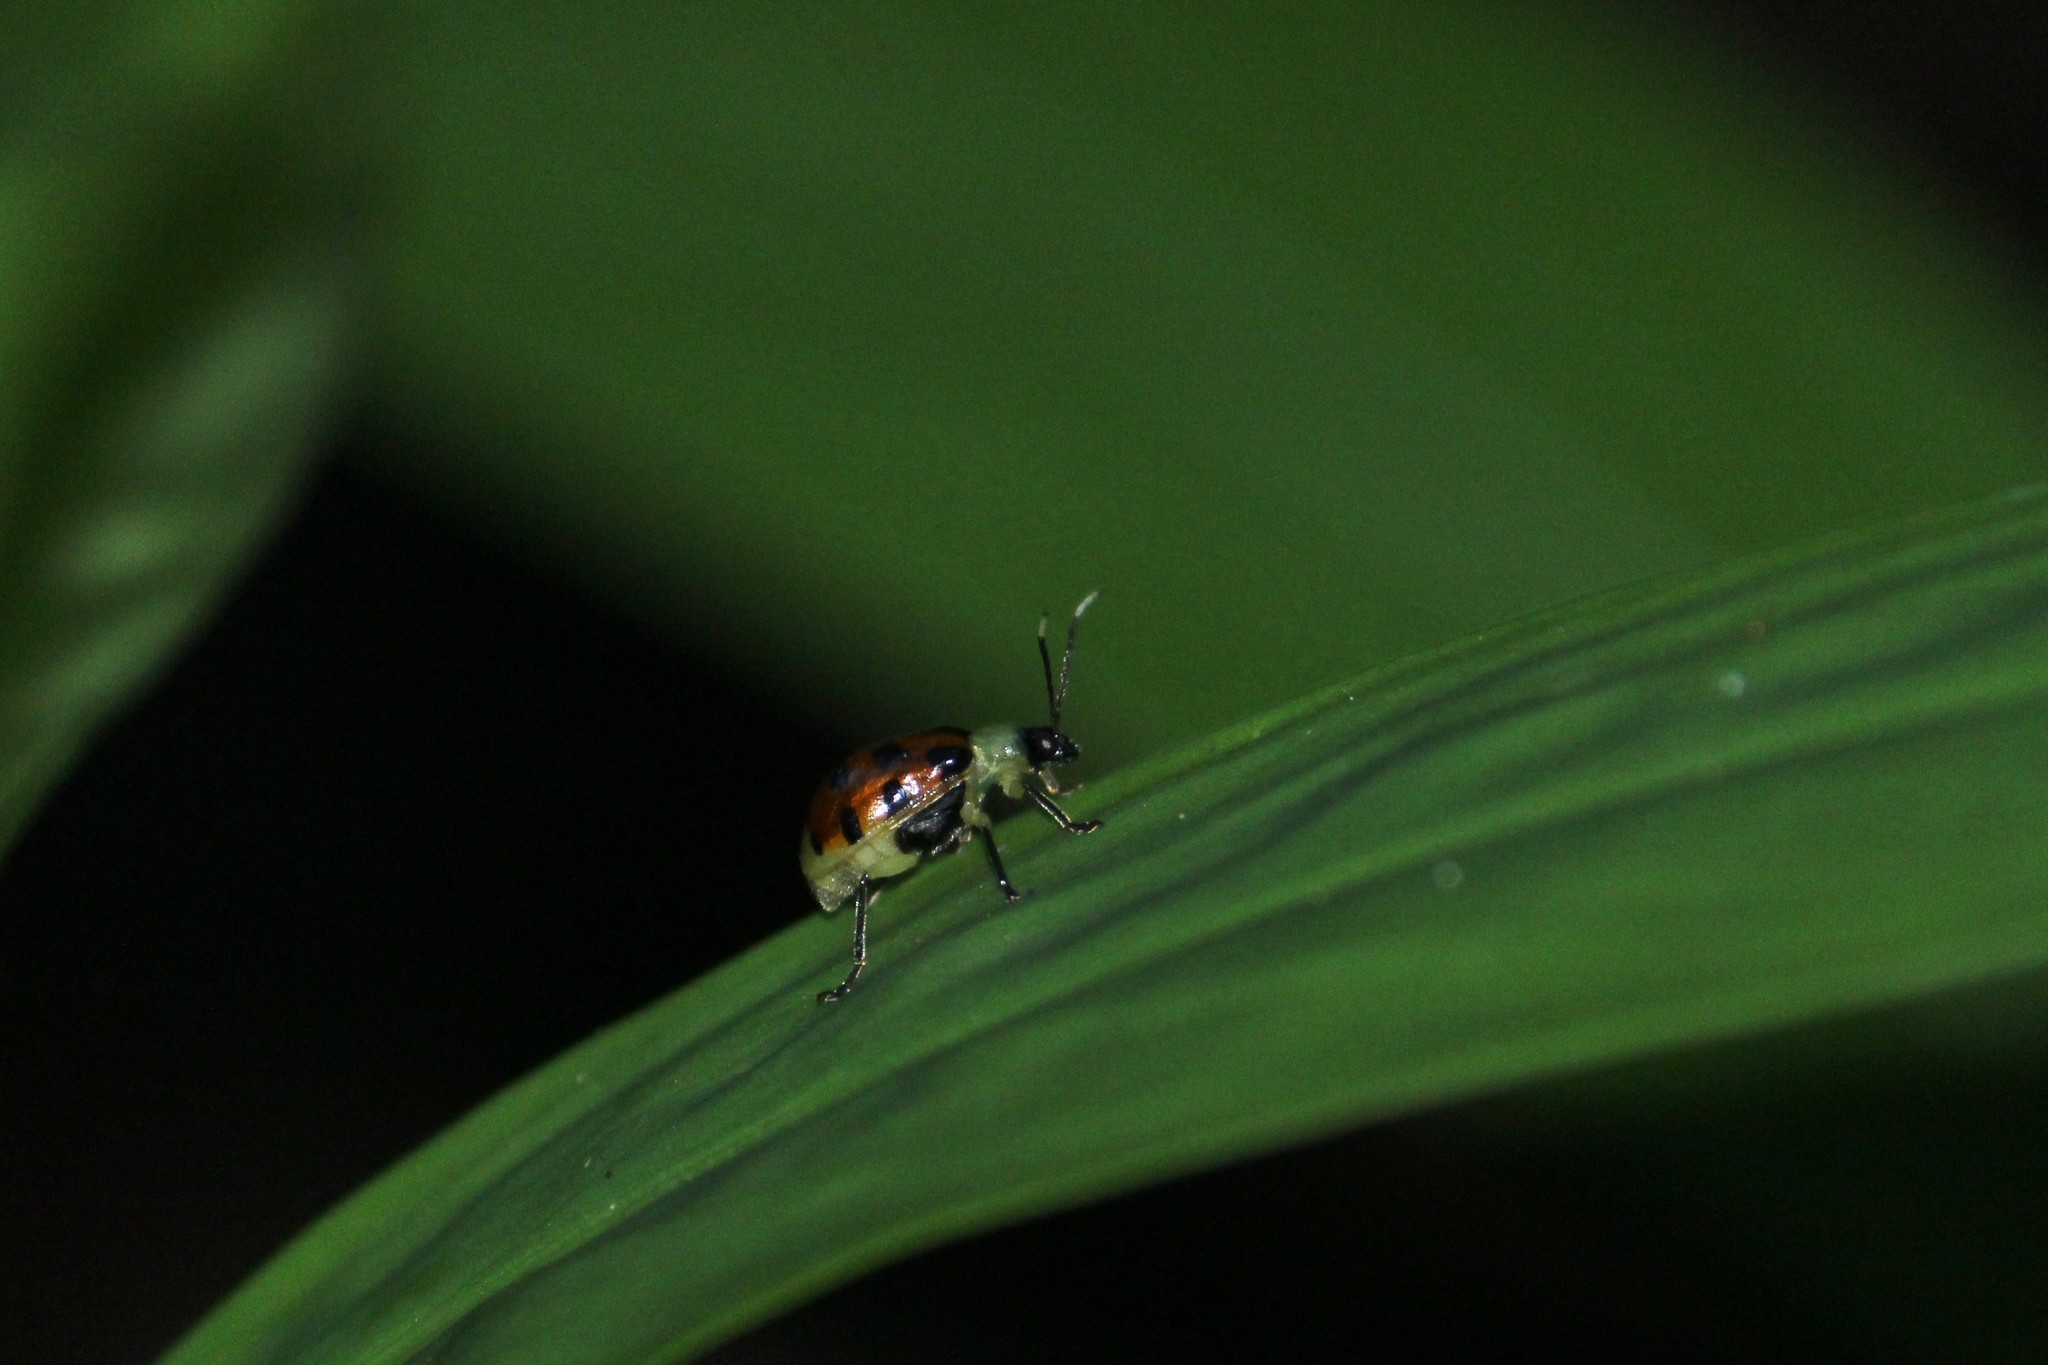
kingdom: Animalia
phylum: Arthropoda
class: Insecta
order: Coleoptera
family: Chrysomelidae
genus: Diabrotica
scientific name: Diabrotica limitata
